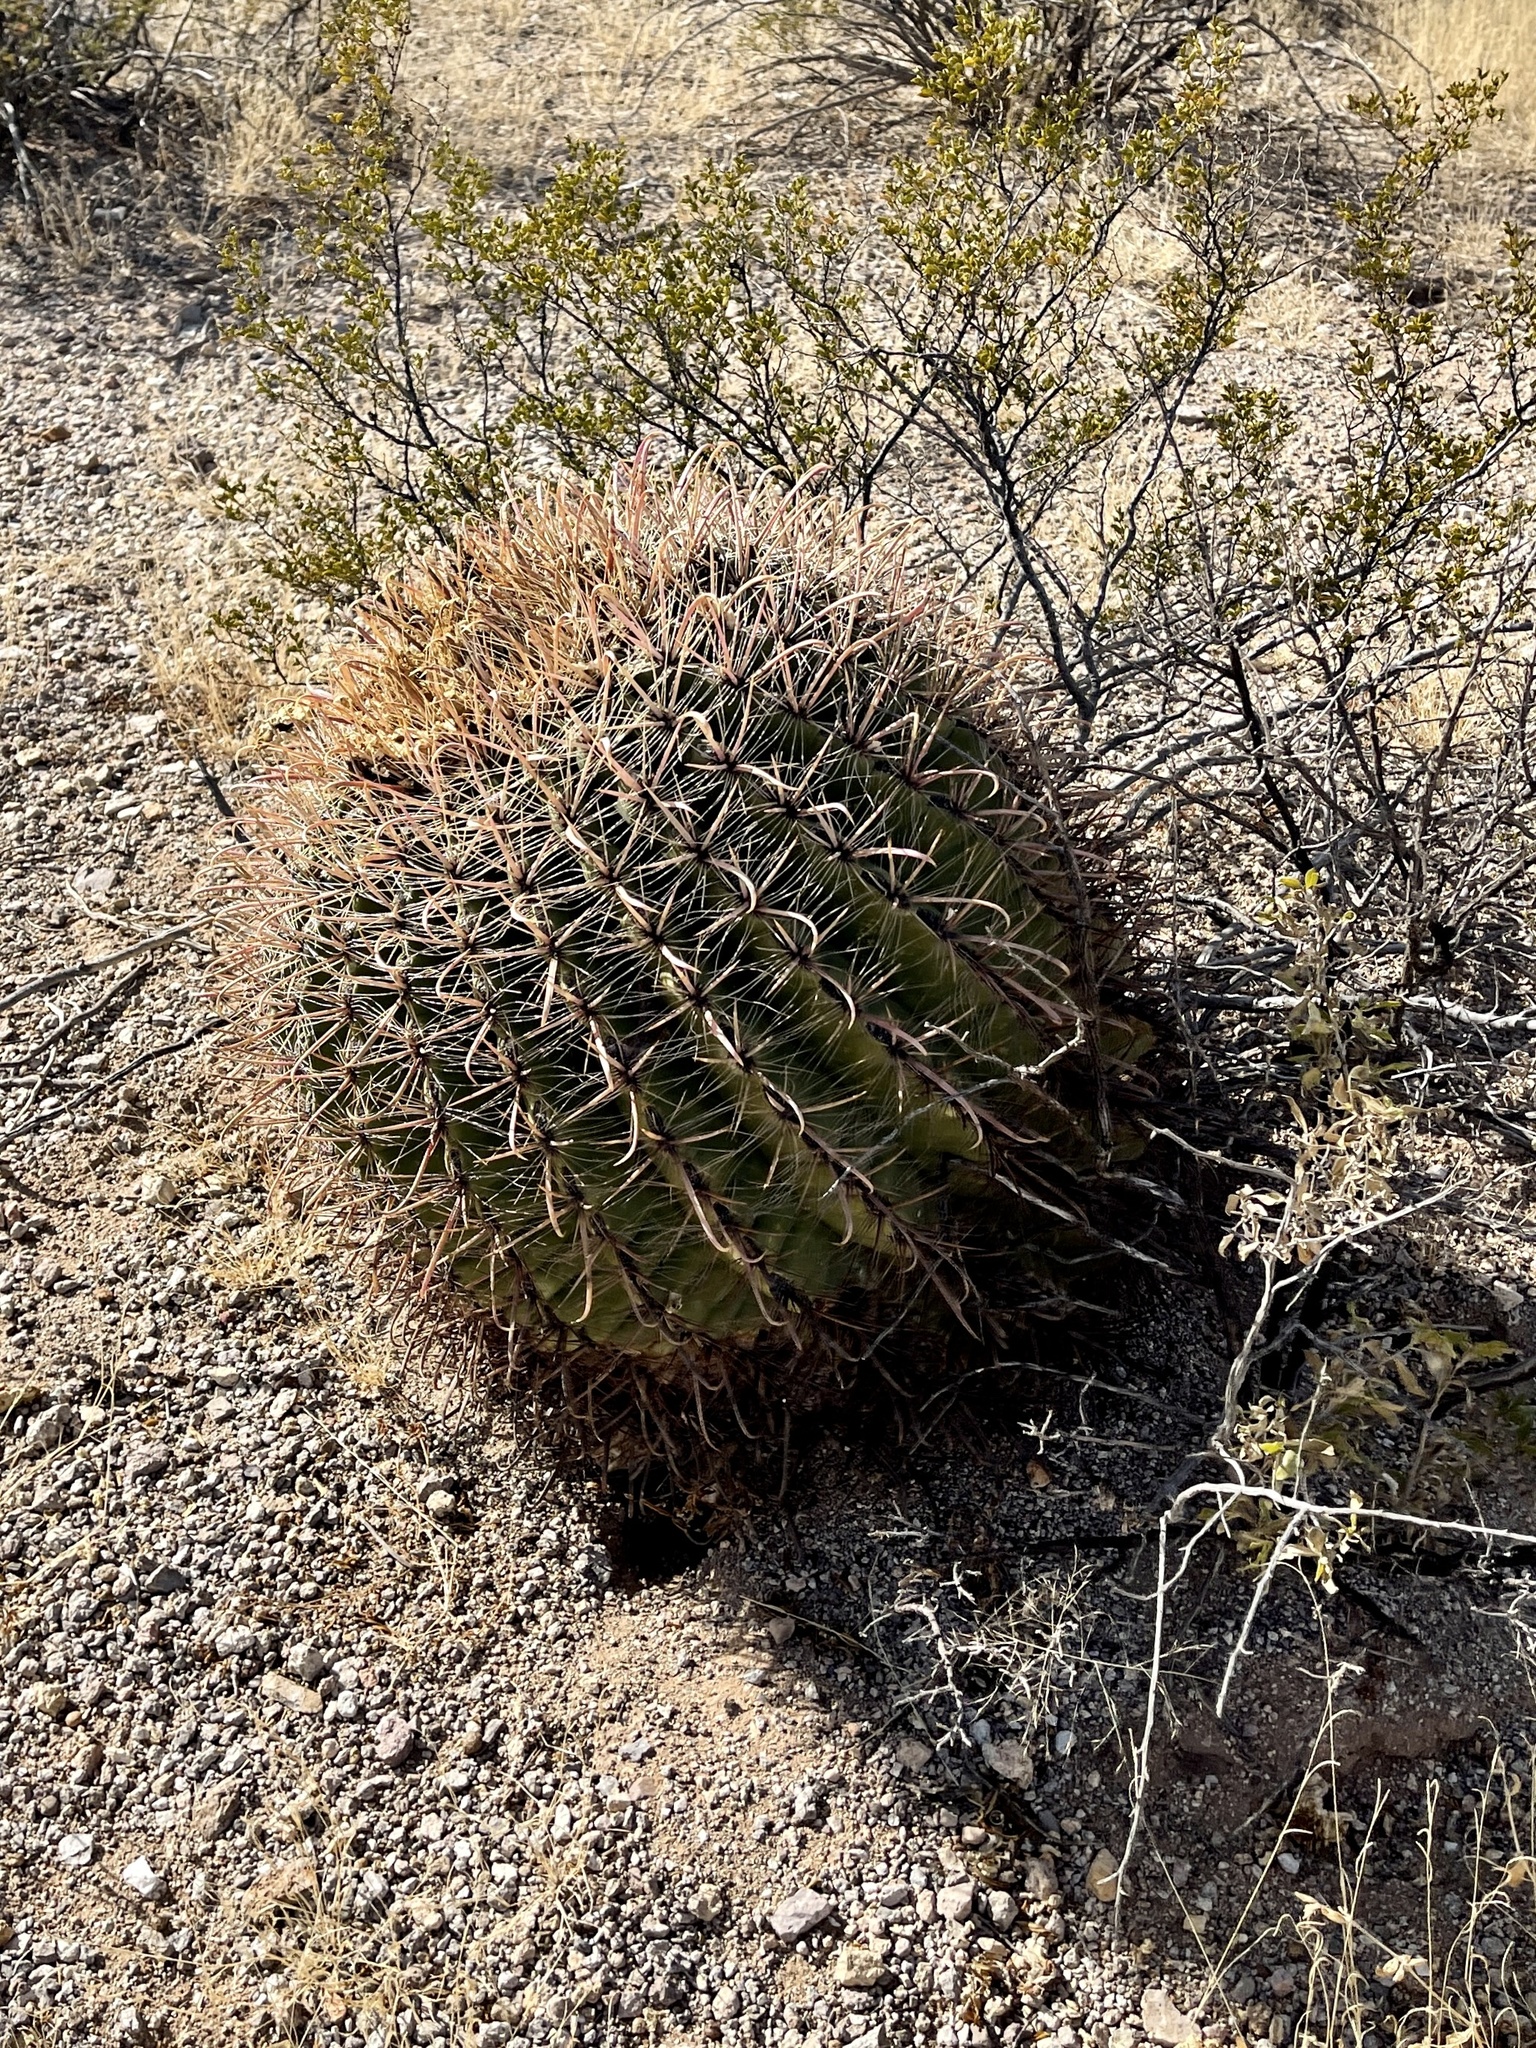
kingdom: Plantae
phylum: Tracheophyta
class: Magnoliopsida
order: Caryophyllales
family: Cactaceae
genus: Ferocactus
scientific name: Ferocactus wislizeni
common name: Candy barrel cactus
